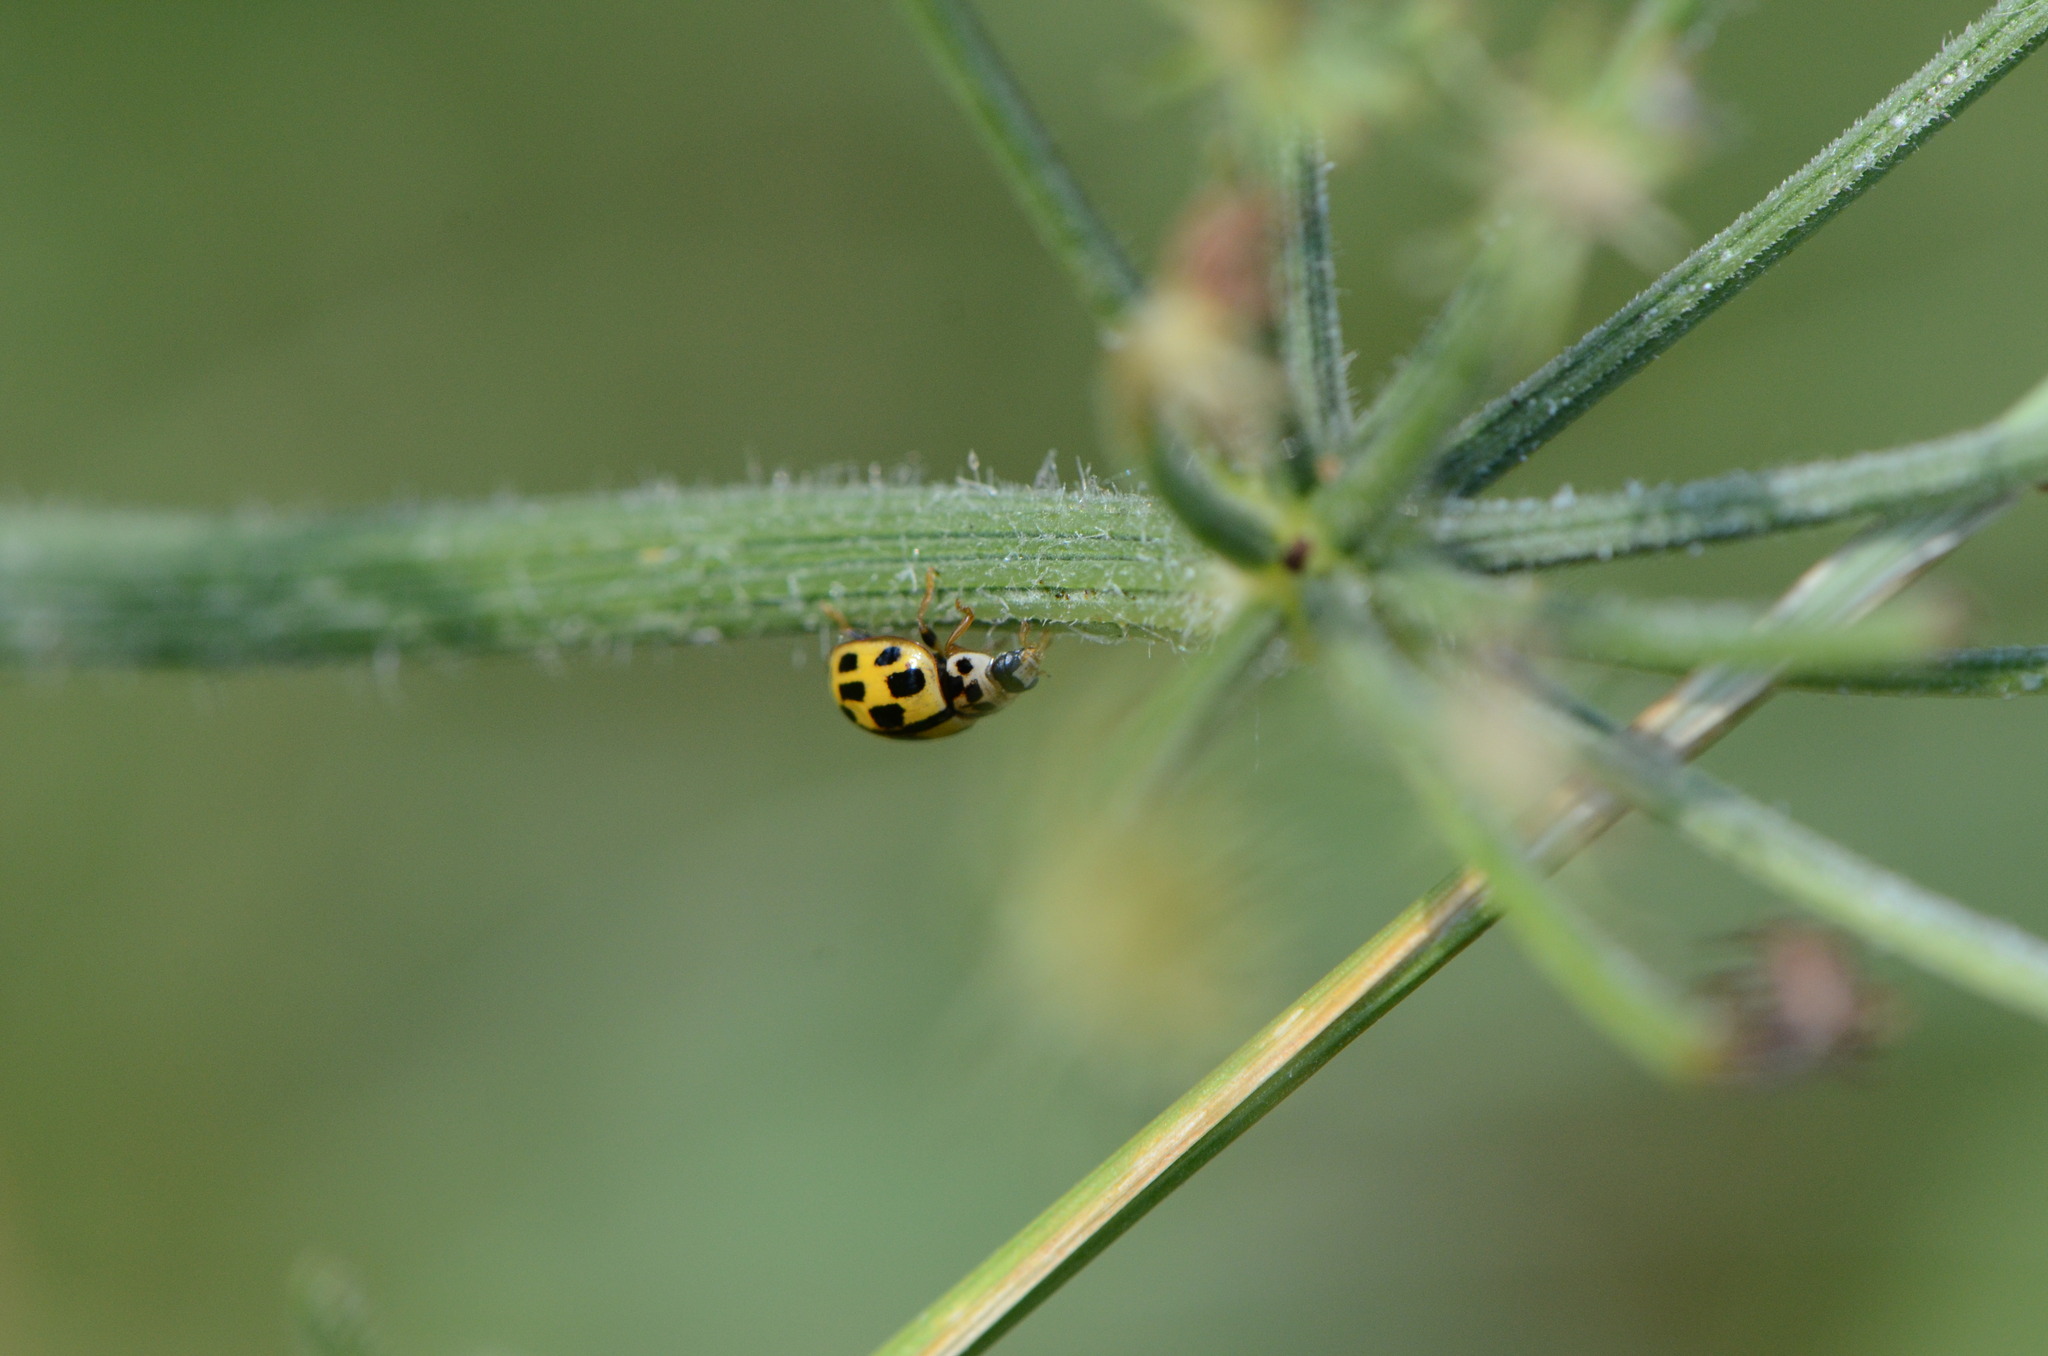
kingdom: Animalia
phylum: Arthropoda
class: Insecta
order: Coleoptera
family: Coccinellidae
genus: Propylaea
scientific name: Propylaea quatuordecimpunctata
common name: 14-spotted ladybird beetle
